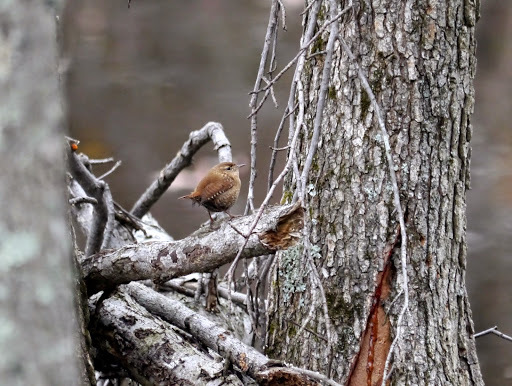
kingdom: Animalia
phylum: Chordata
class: Aves
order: Passeriformes
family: Troglodytidae
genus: Troglodytes
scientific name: Troglodytes hiemalis
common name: Winter wren
